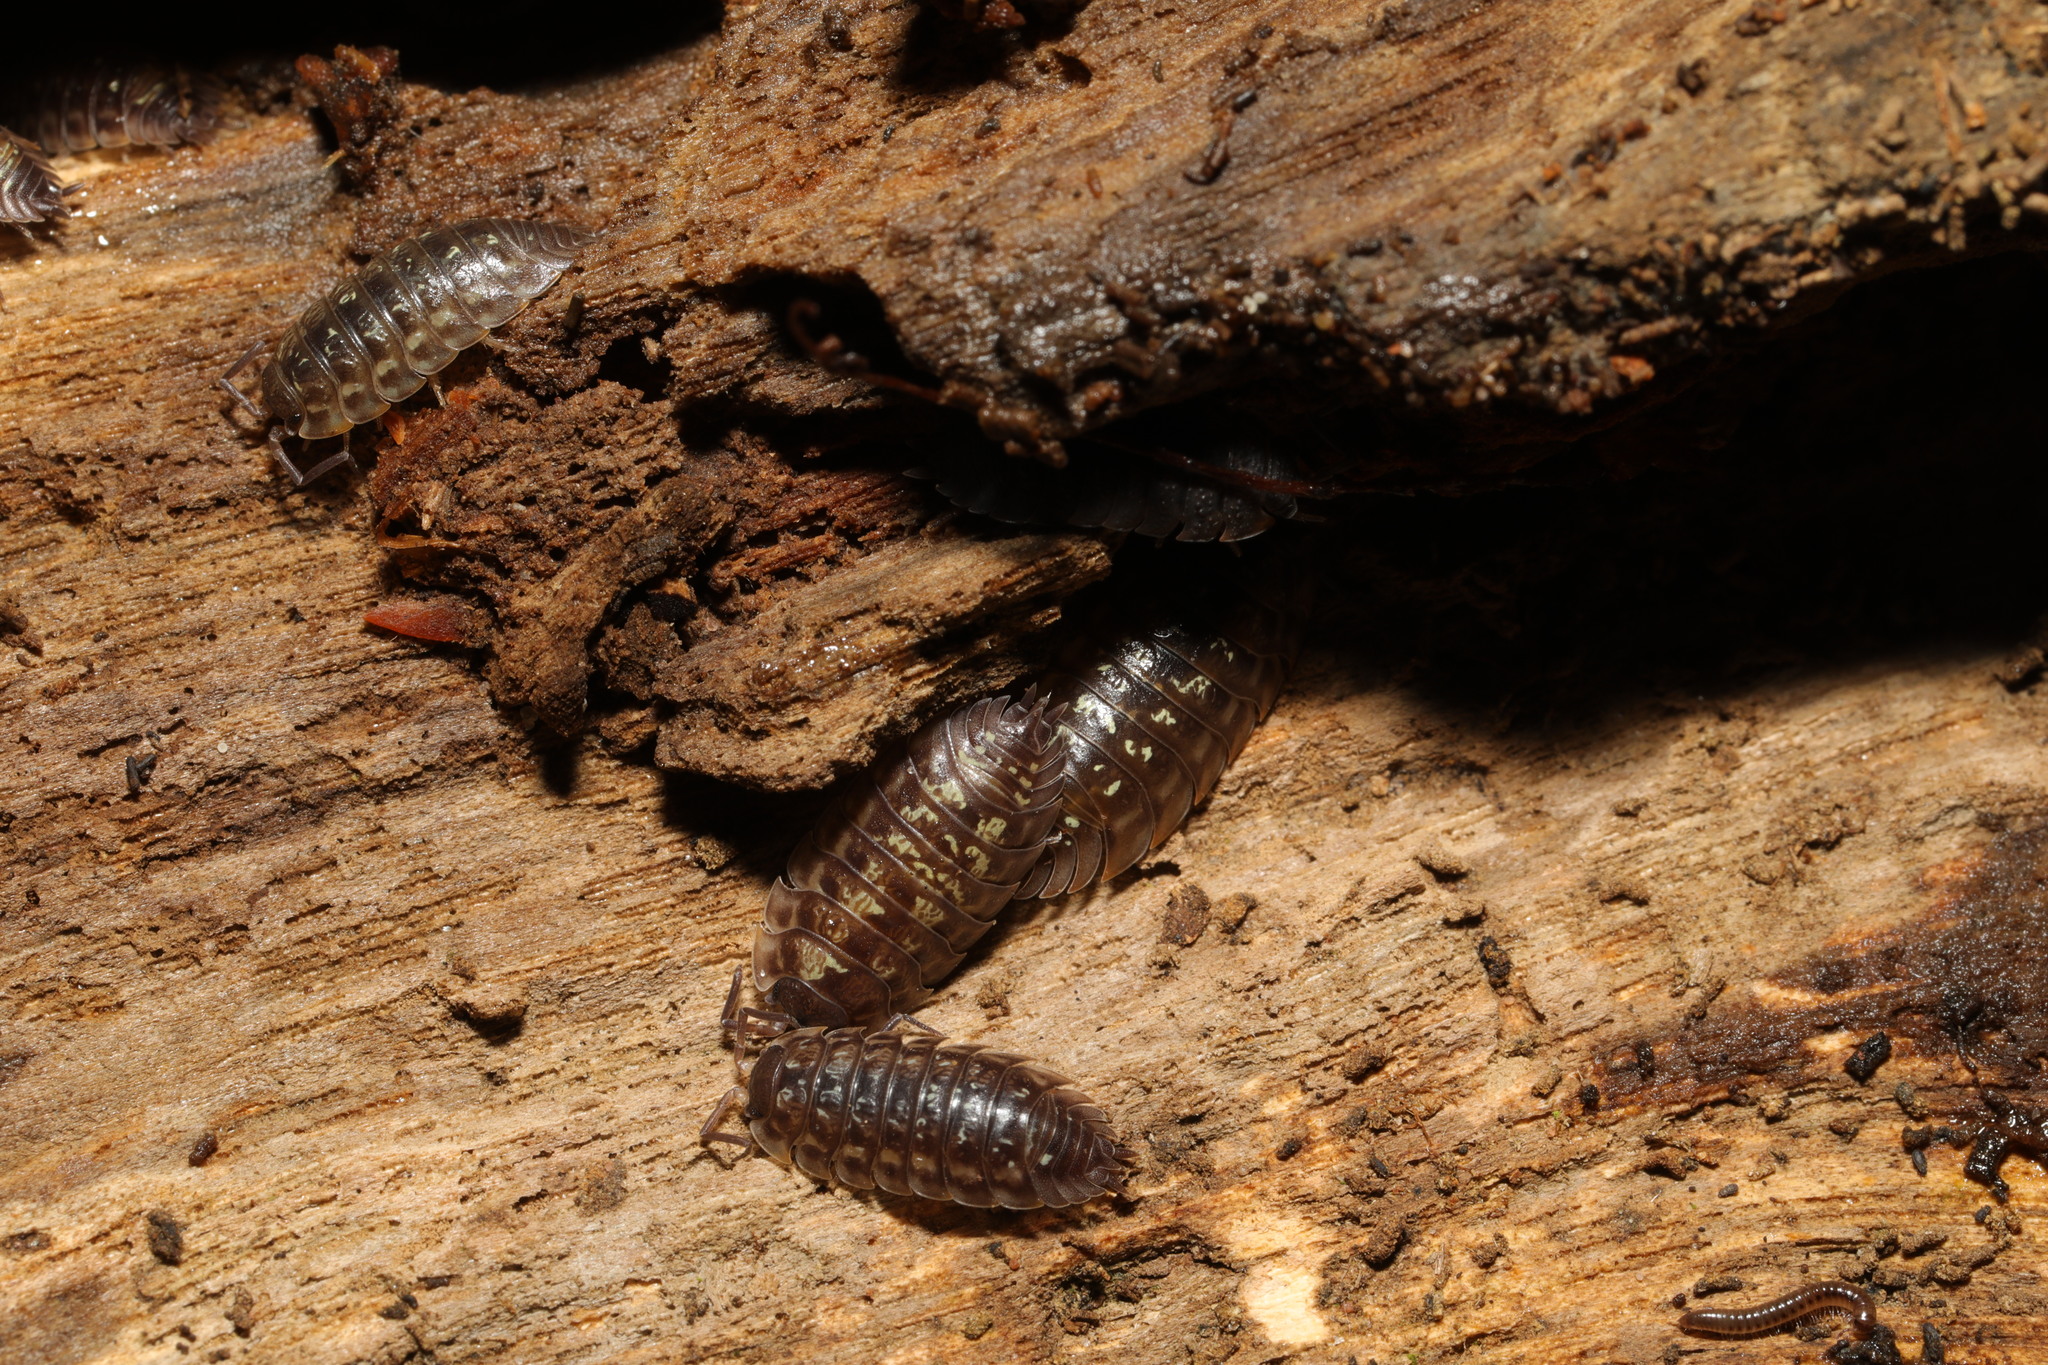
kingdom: Animalia
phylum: Arthropoda
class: Malacostraca
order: Isopoda
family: Oniscidae
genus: Oniscus
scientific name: Oniscus asellus
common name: Common shiny woodlouse
